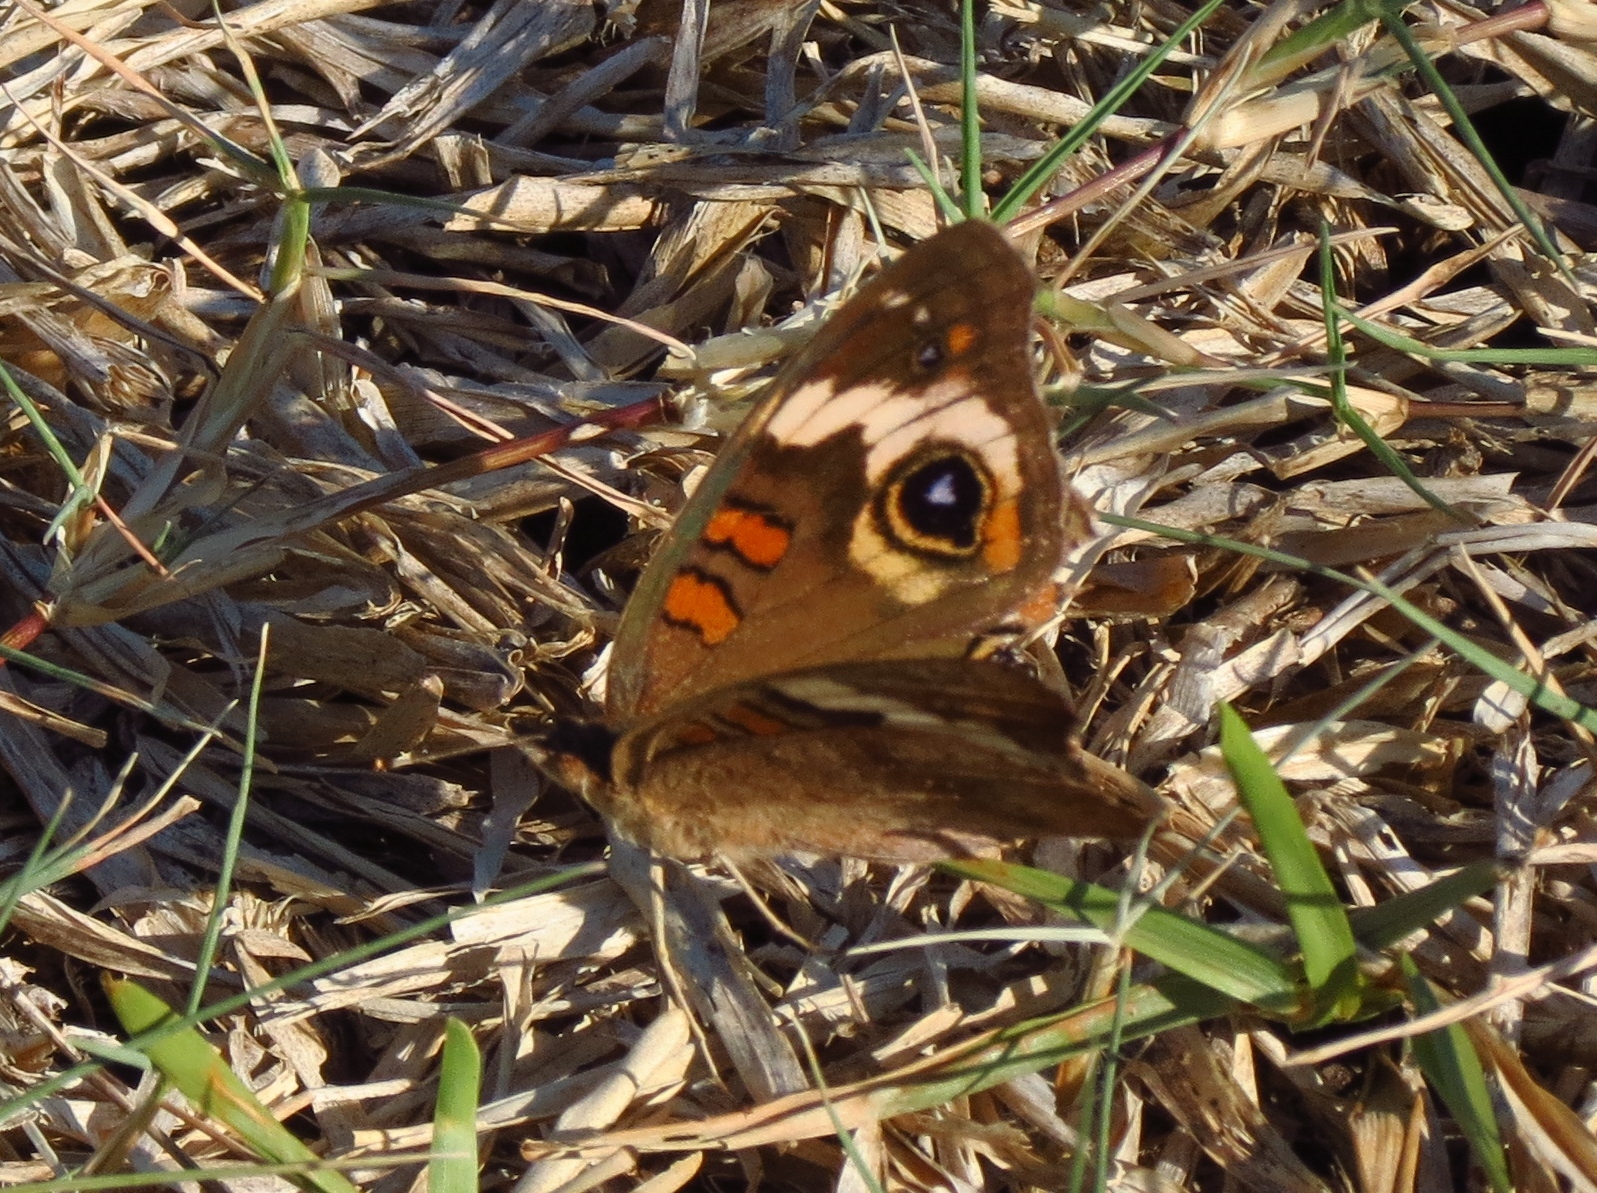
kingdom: Animalia
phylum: Arthropoda
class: Insecta
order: Lepidoptera
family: Nymphalidae
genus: Junonia
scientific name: Junonia coenia
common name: Common buckeye
